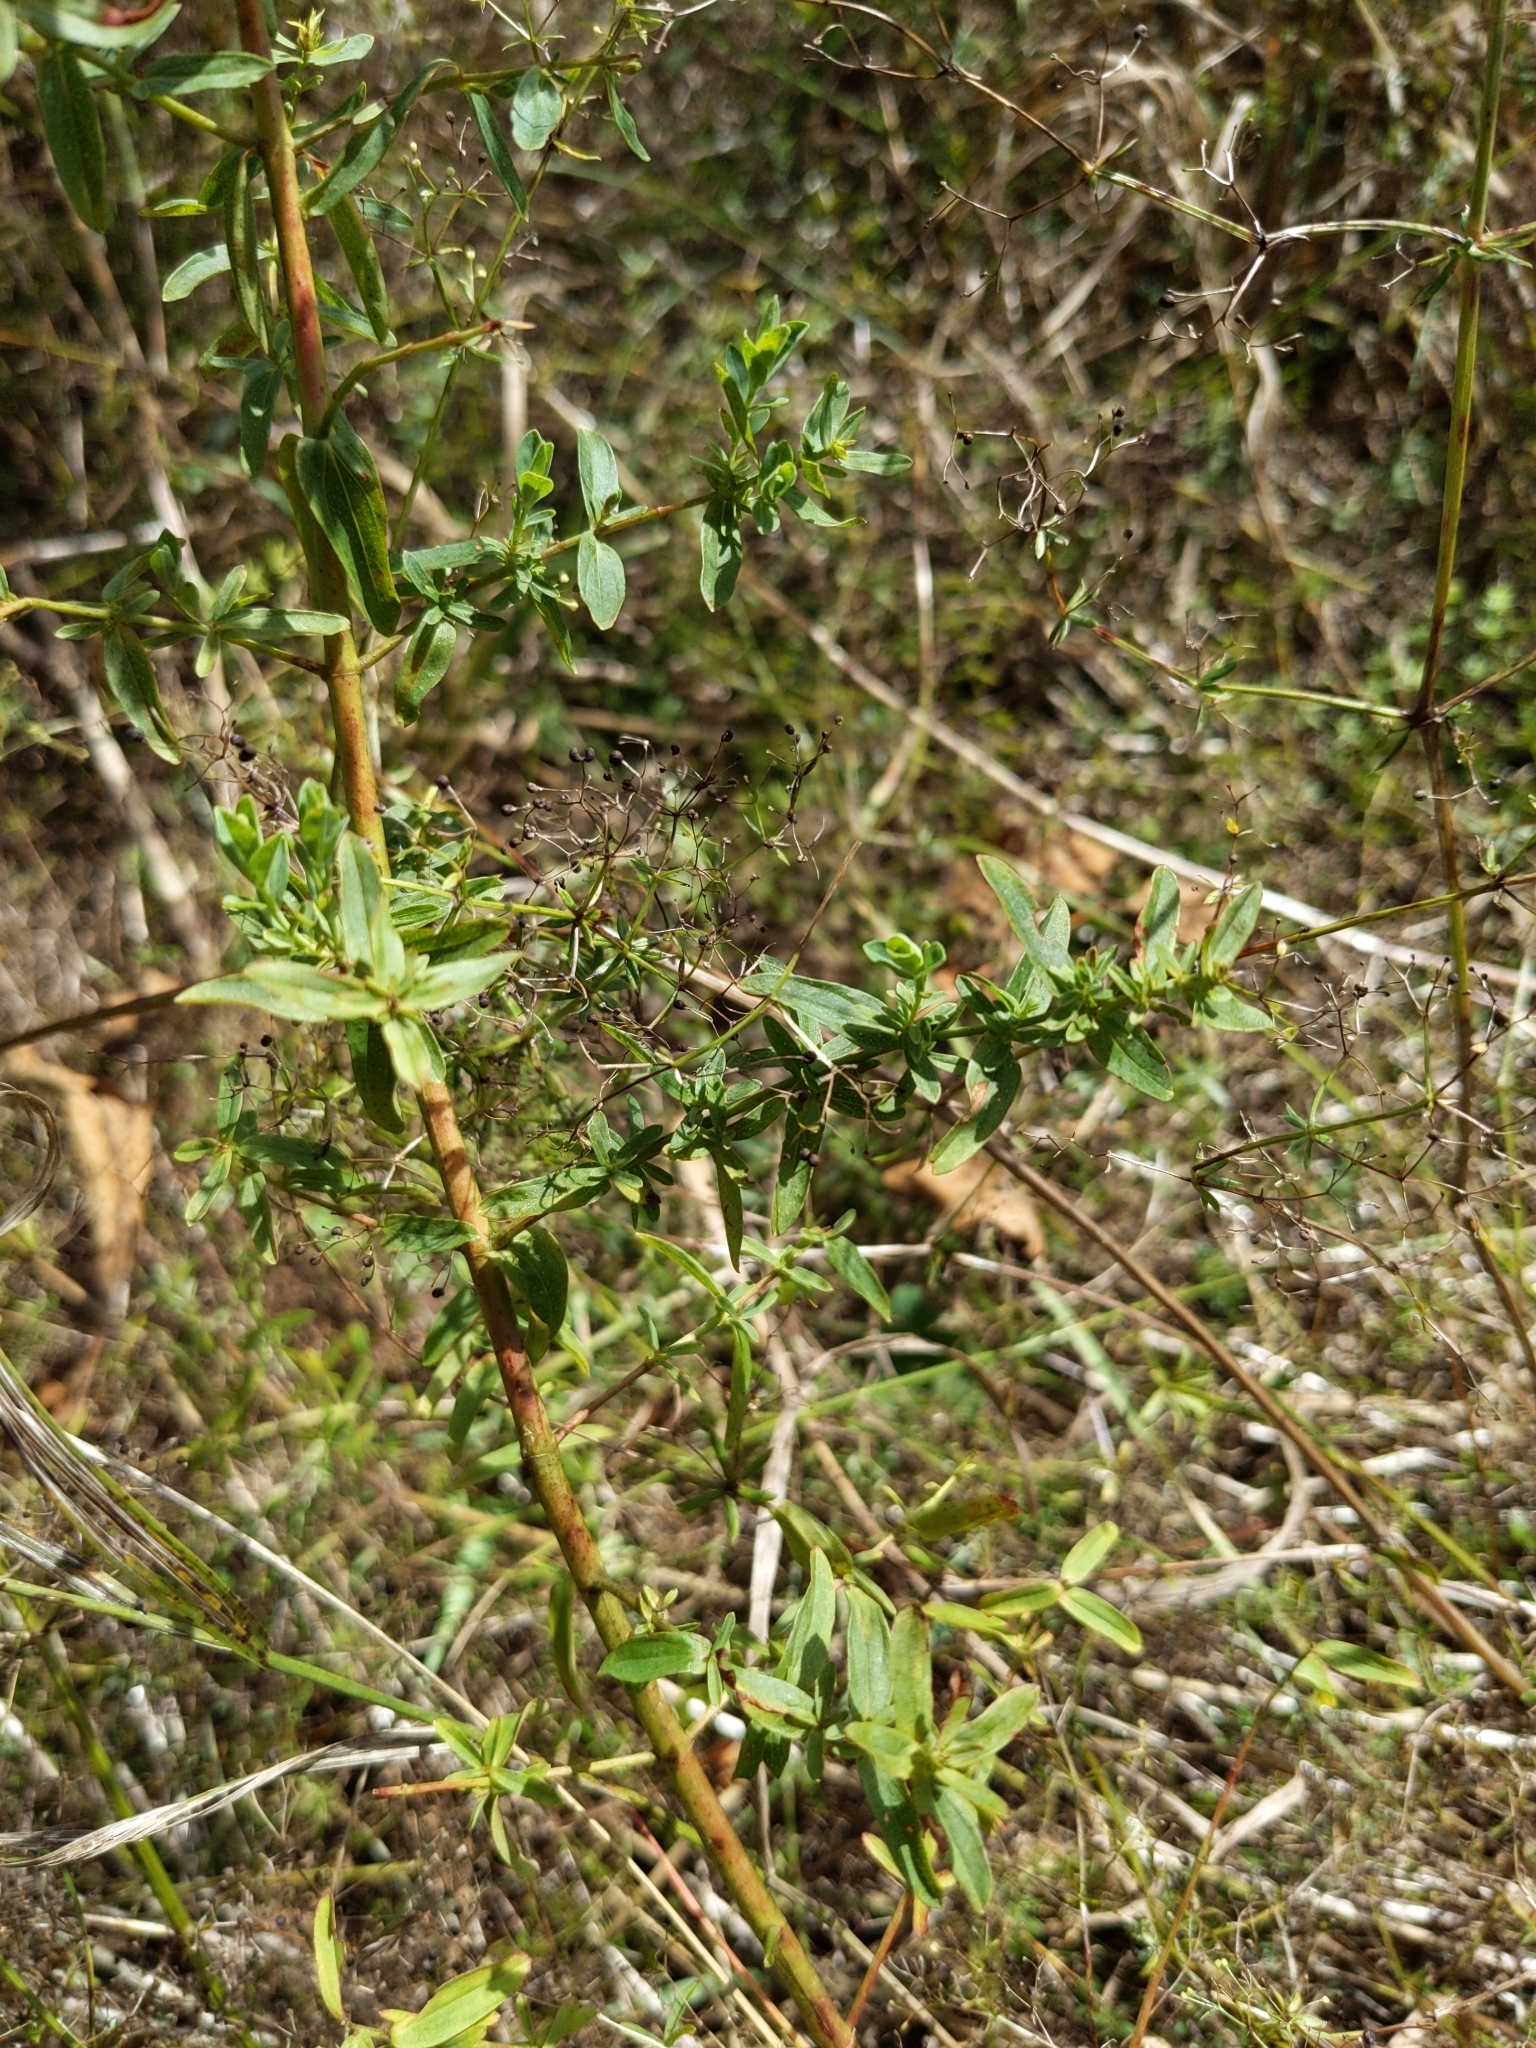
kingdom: Plantae
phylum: Tracheophyta
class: Magnoliopsida
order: Malpighiales
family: Hypericaceae
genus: Hypericum
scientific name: Hypericum perforatum
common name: Common st. johnswort
